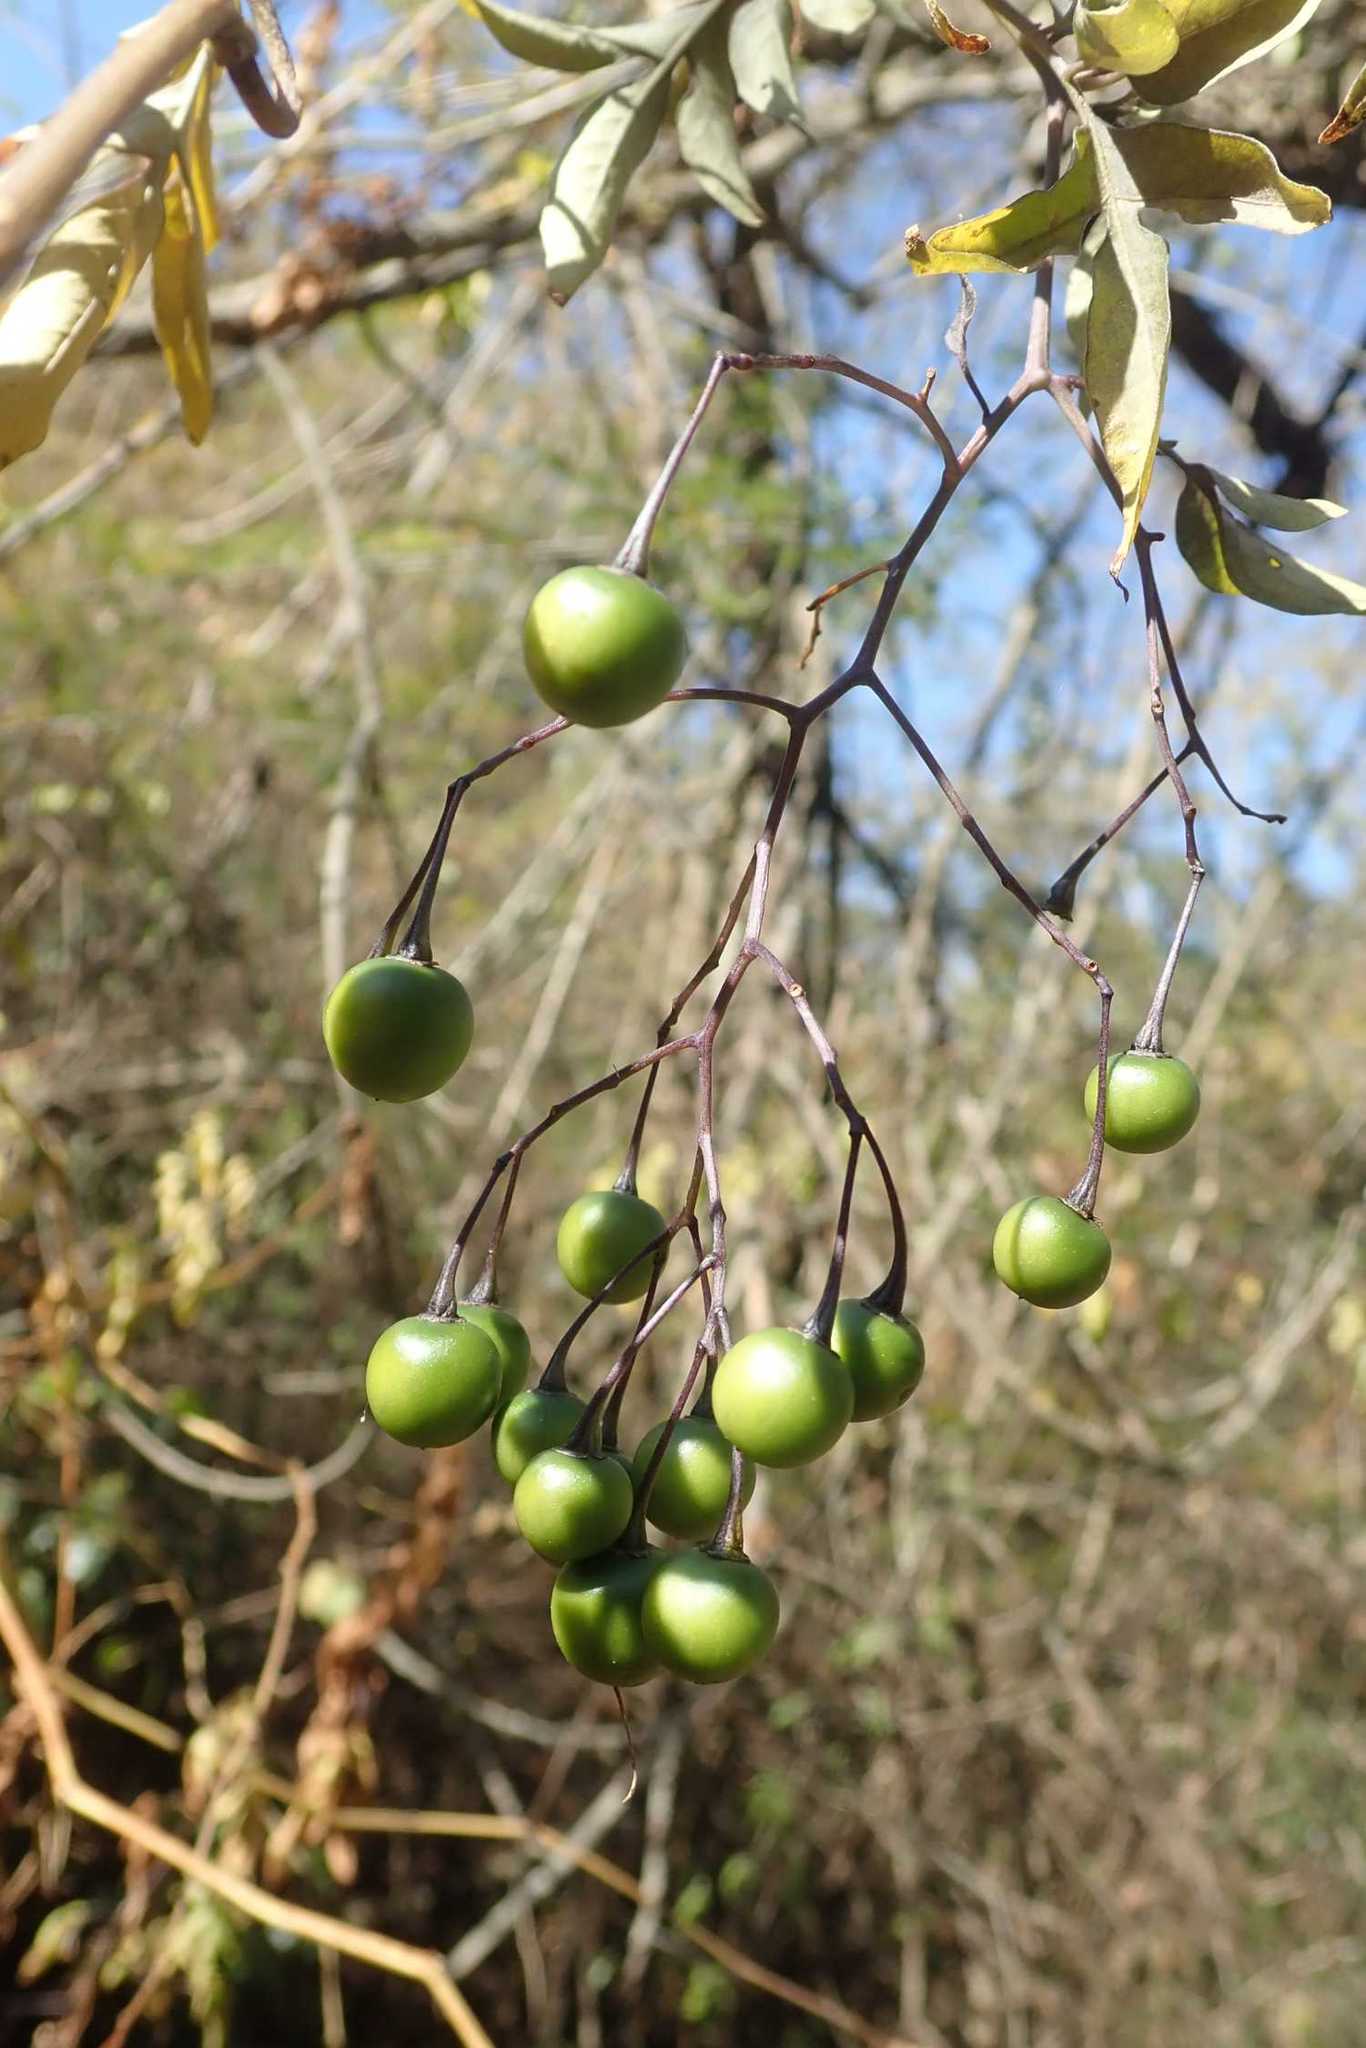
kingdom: Plantae
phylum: Tracheophyta
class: Magnoliopsida
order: Solanales
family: Solanaceae
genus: Solanum
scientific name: Solanum seaforthianum
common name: Brazilian nightshade
